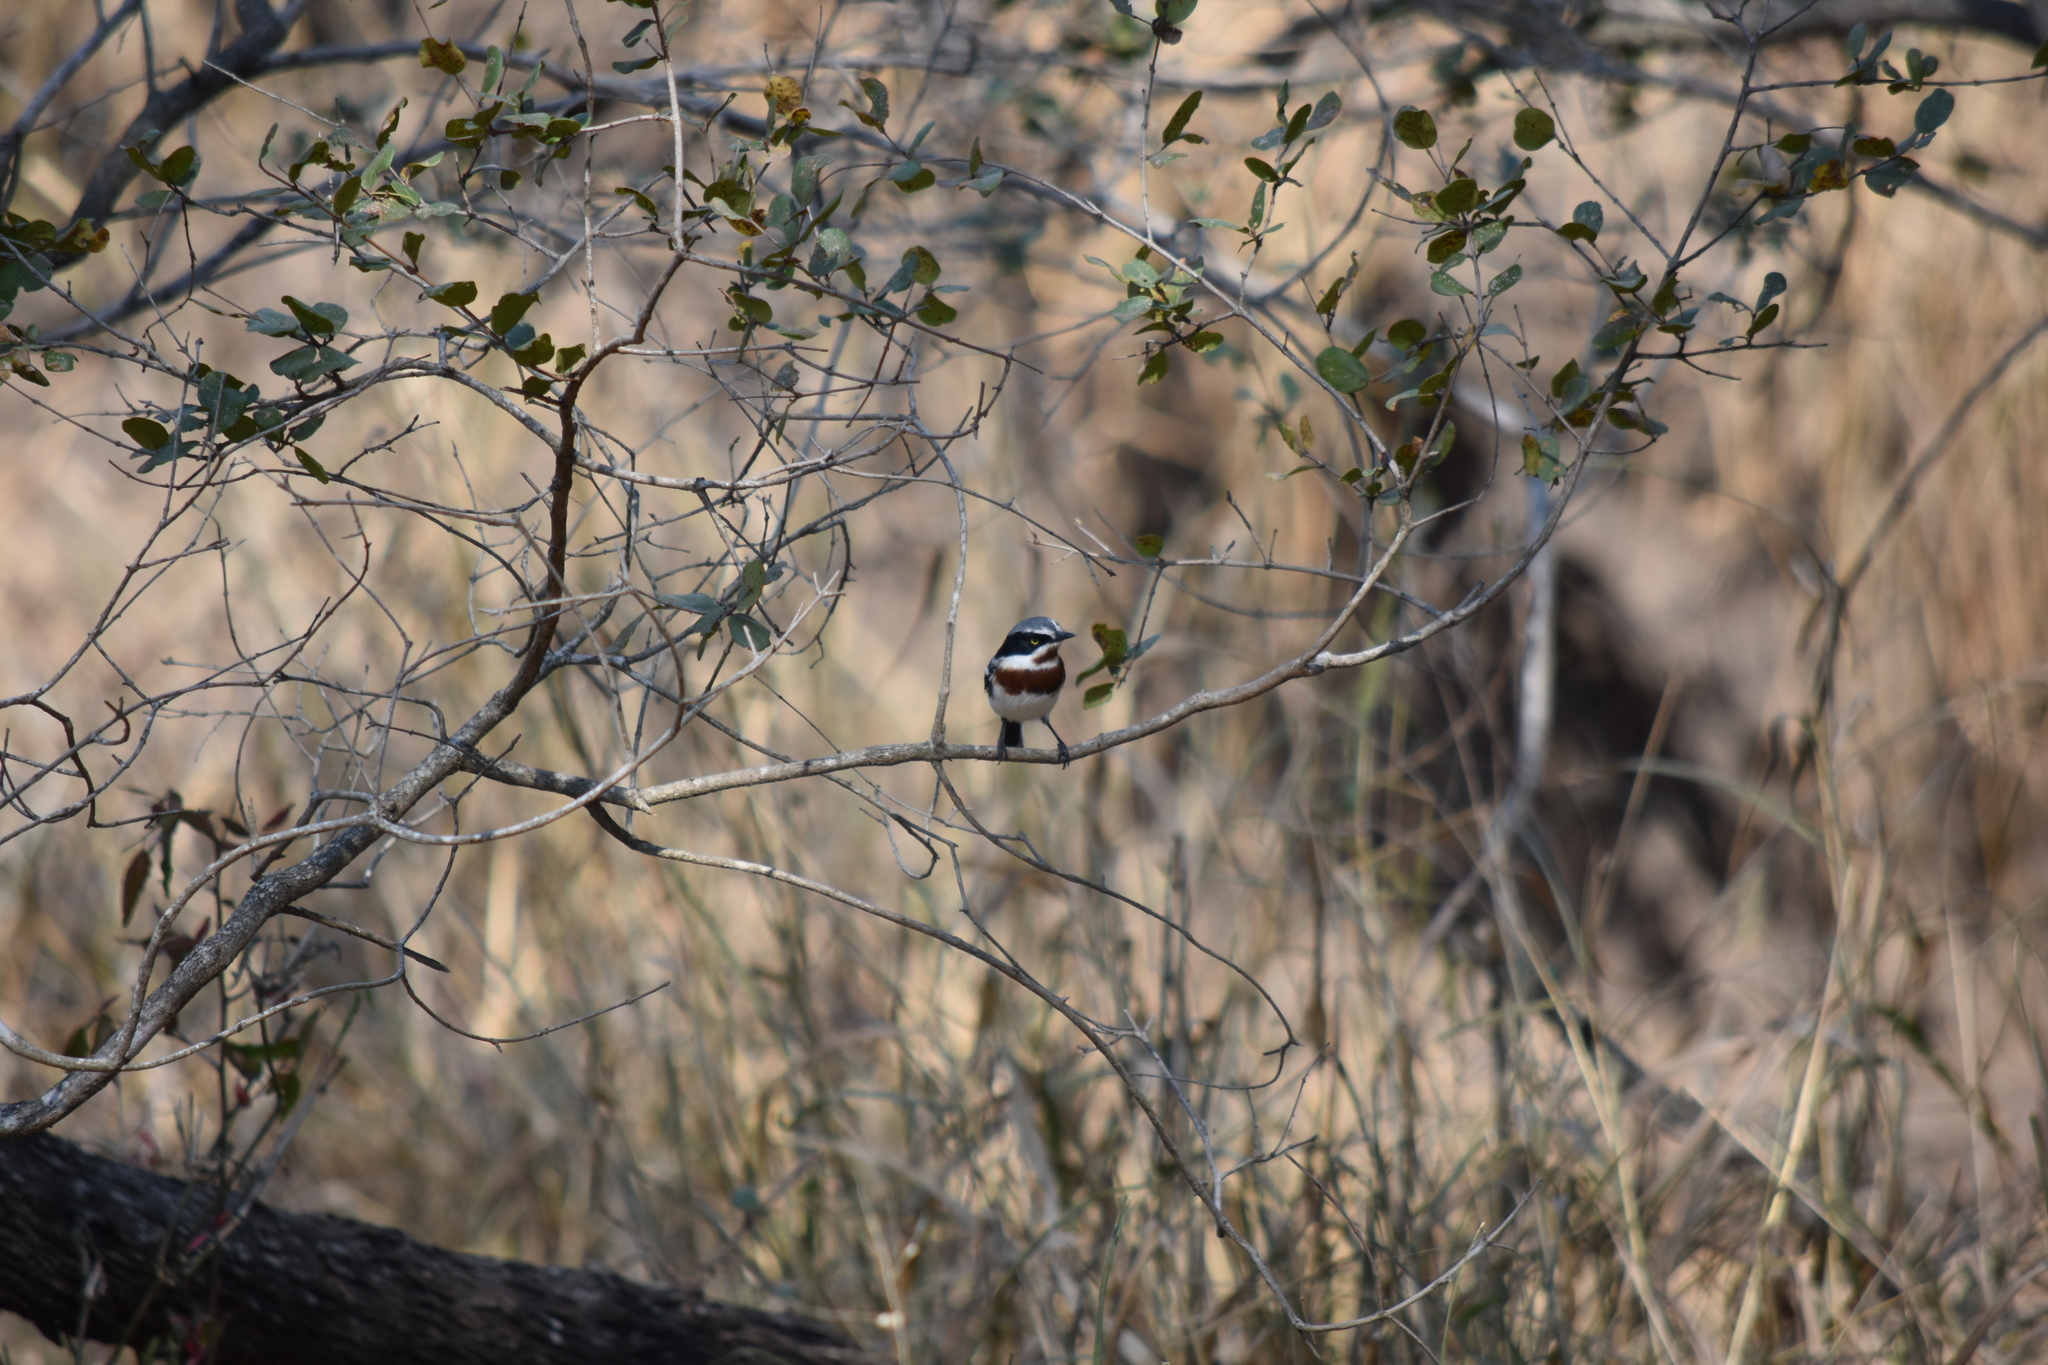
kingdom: Animalia
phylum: Chordata
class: Aves
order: Passeriformes
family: Platysteiridae
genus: Batis
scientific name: Batis molitor
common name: Chinspot batis
